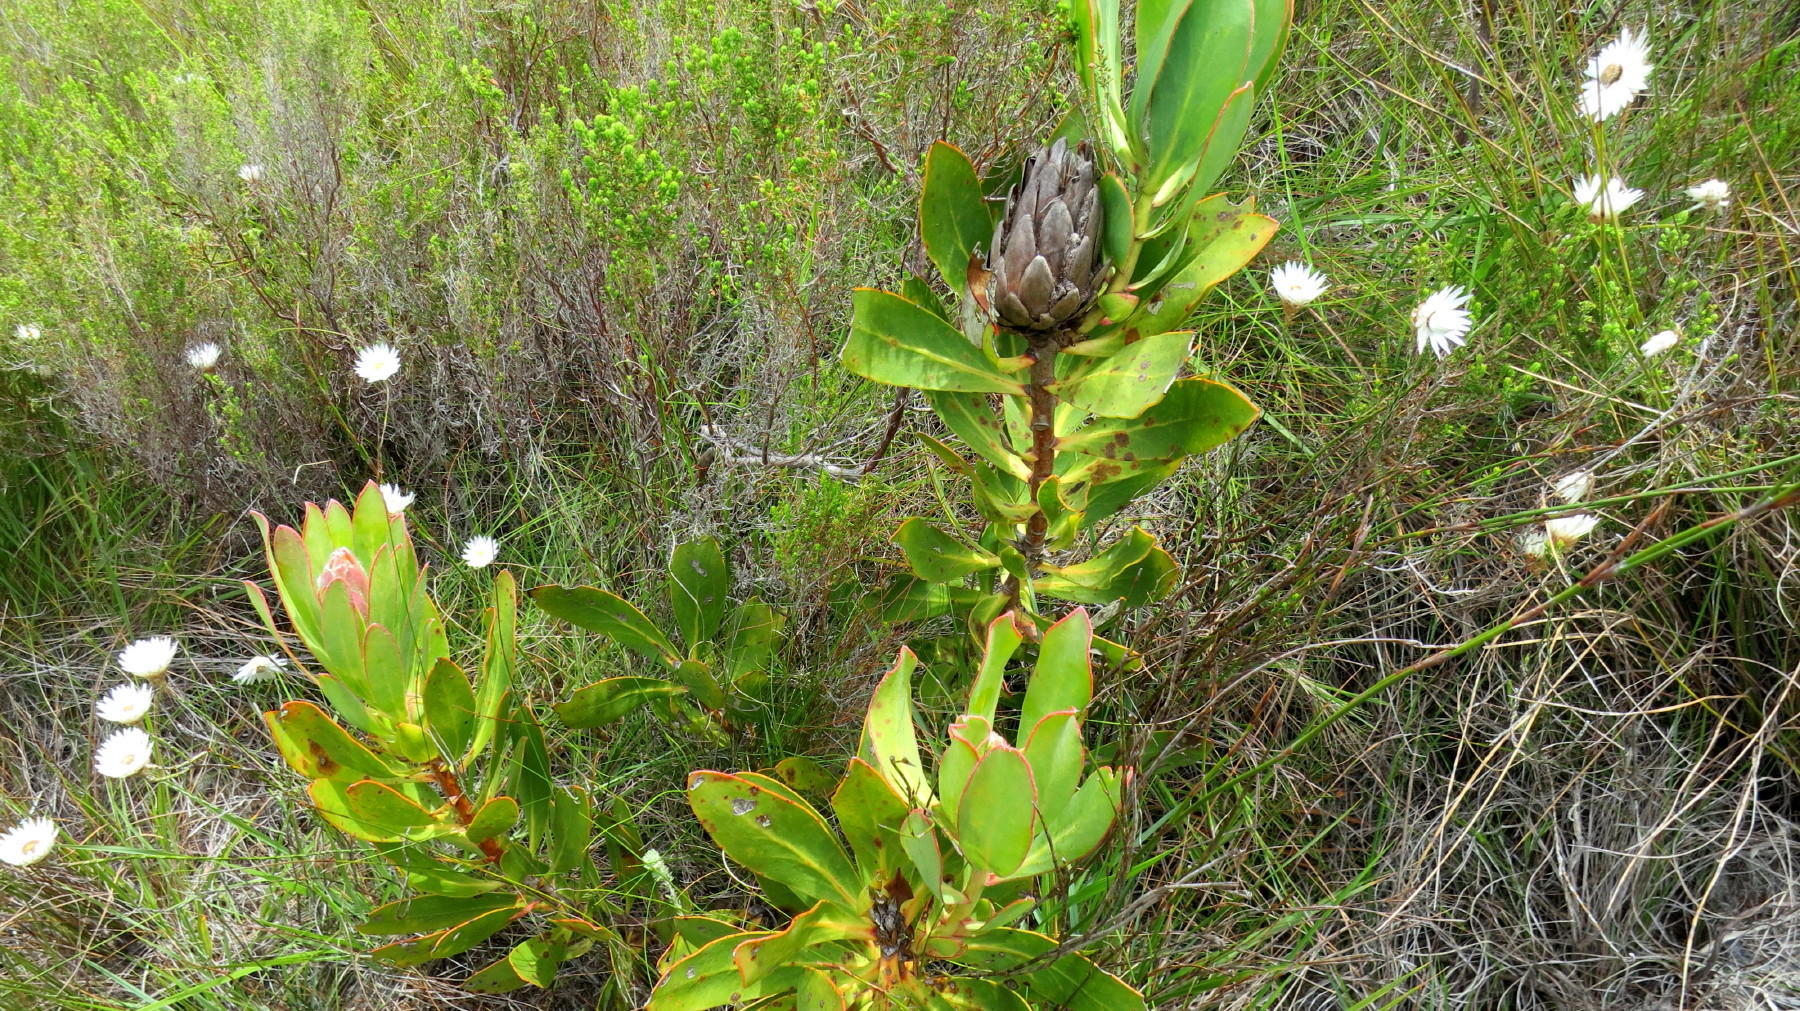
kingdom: Plantae
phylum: Tracheophyta
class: Magnoliopsida
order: Proteales
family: Proteaceae
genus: Protea
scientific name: Protea speciosa
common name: Brown-beard sugarbush
